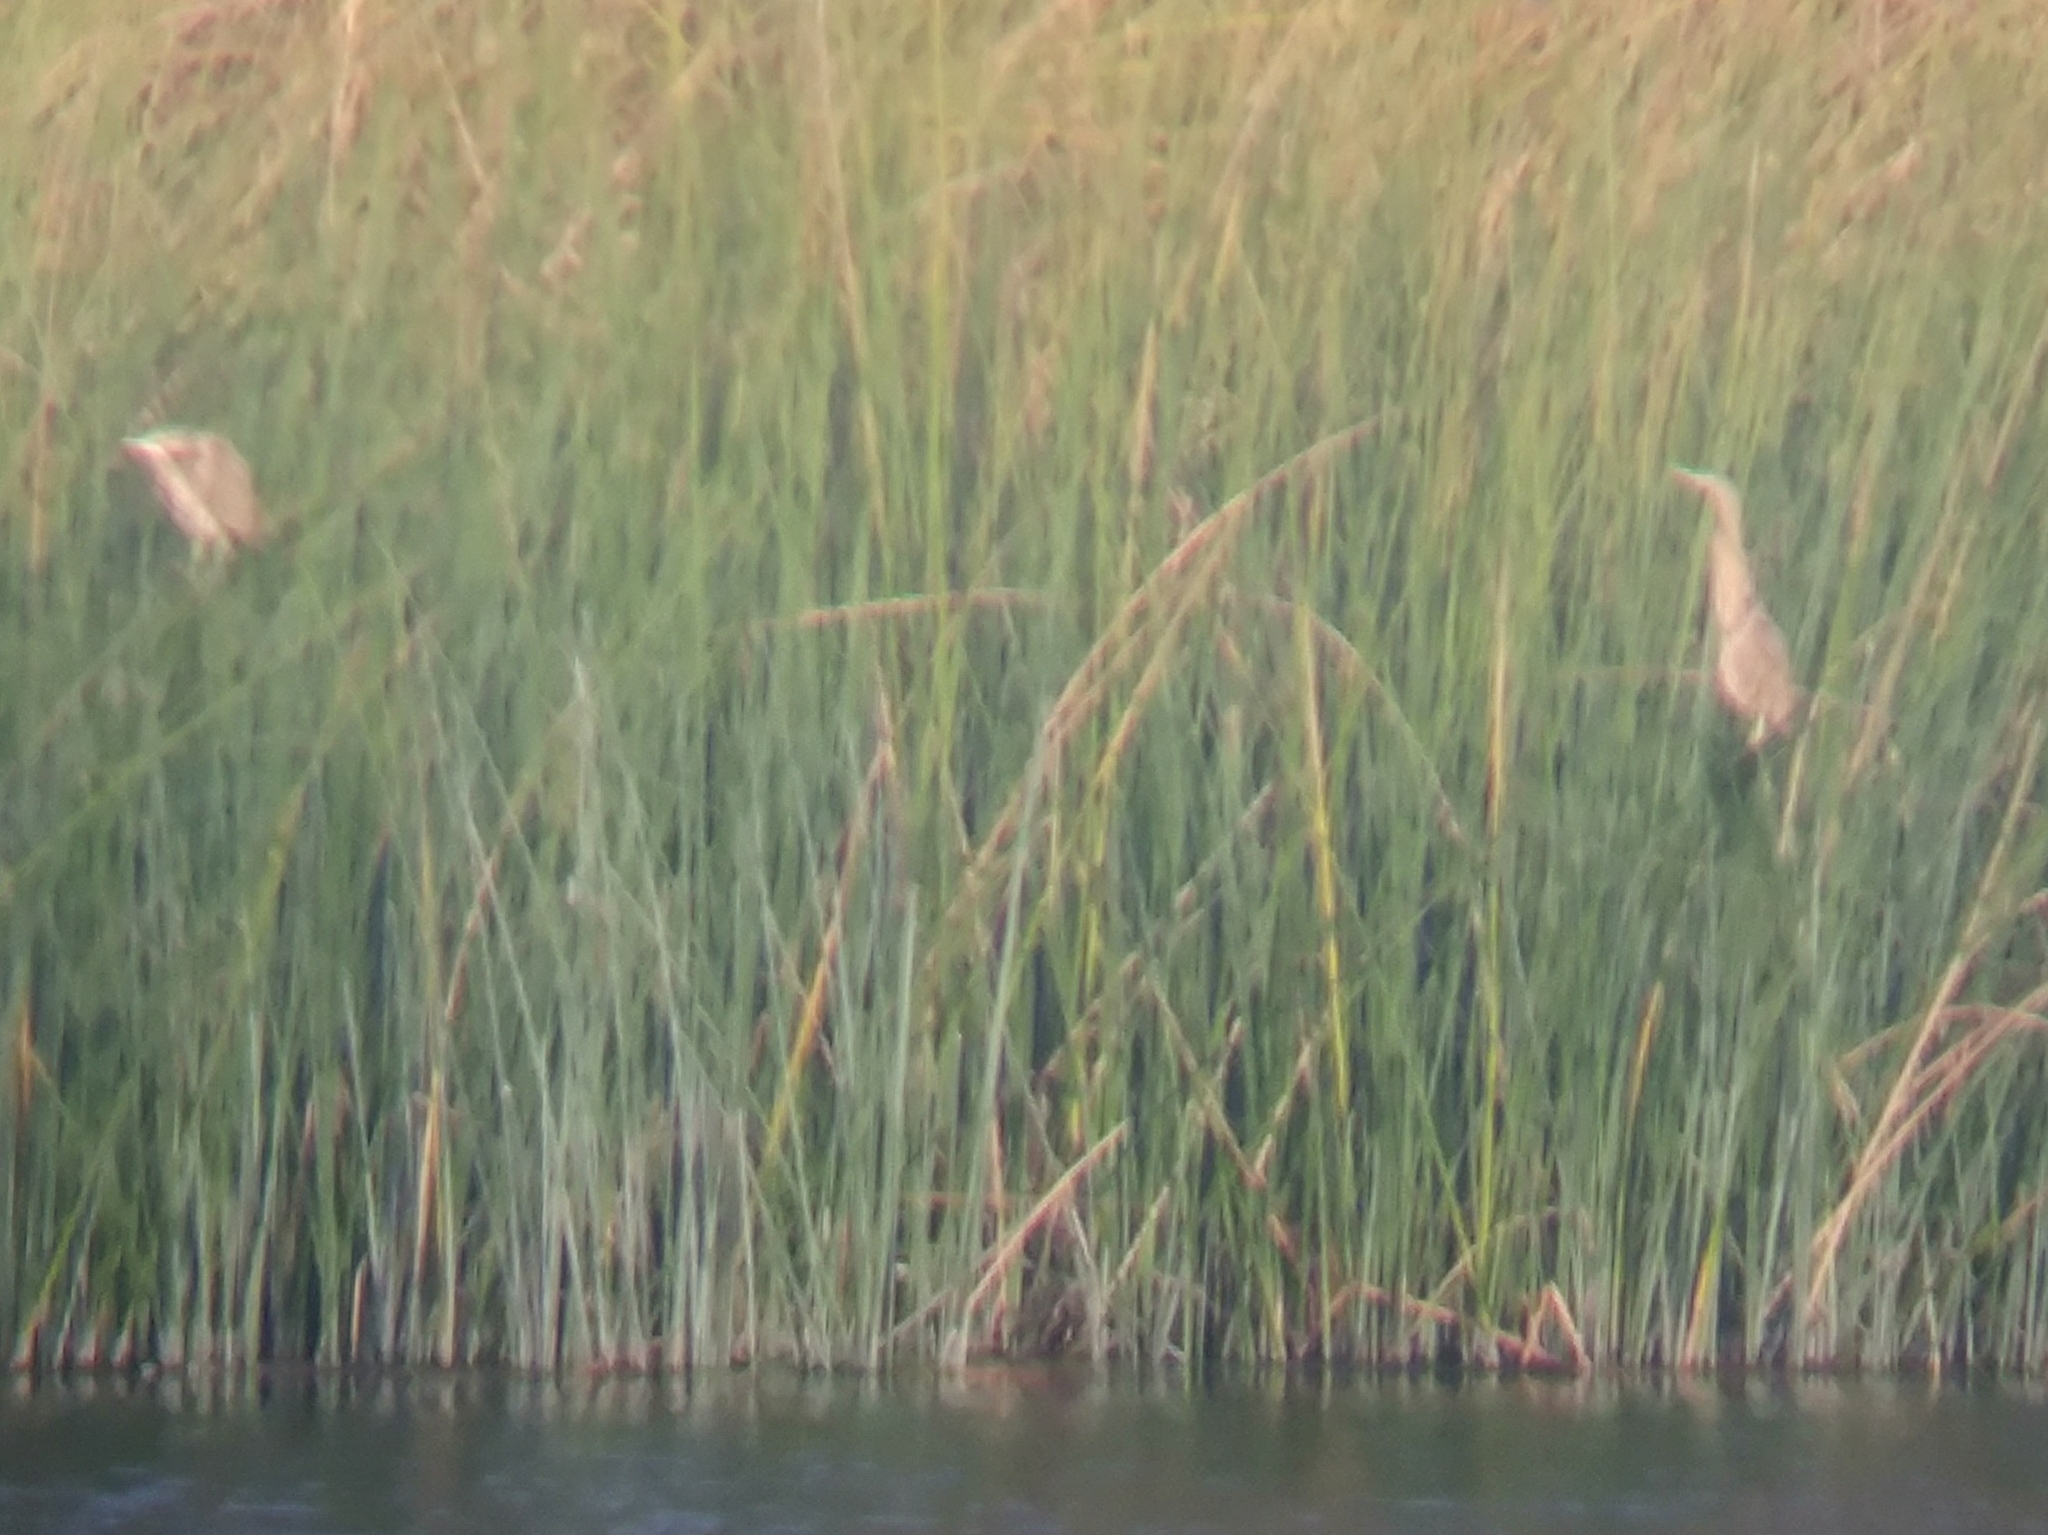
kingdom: Animalia
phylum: Chordata
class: Aves
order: Pelecaniformes
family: Ardeidae
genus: Botaurus
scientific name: Botaurus lentiginosus
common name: American bittern
